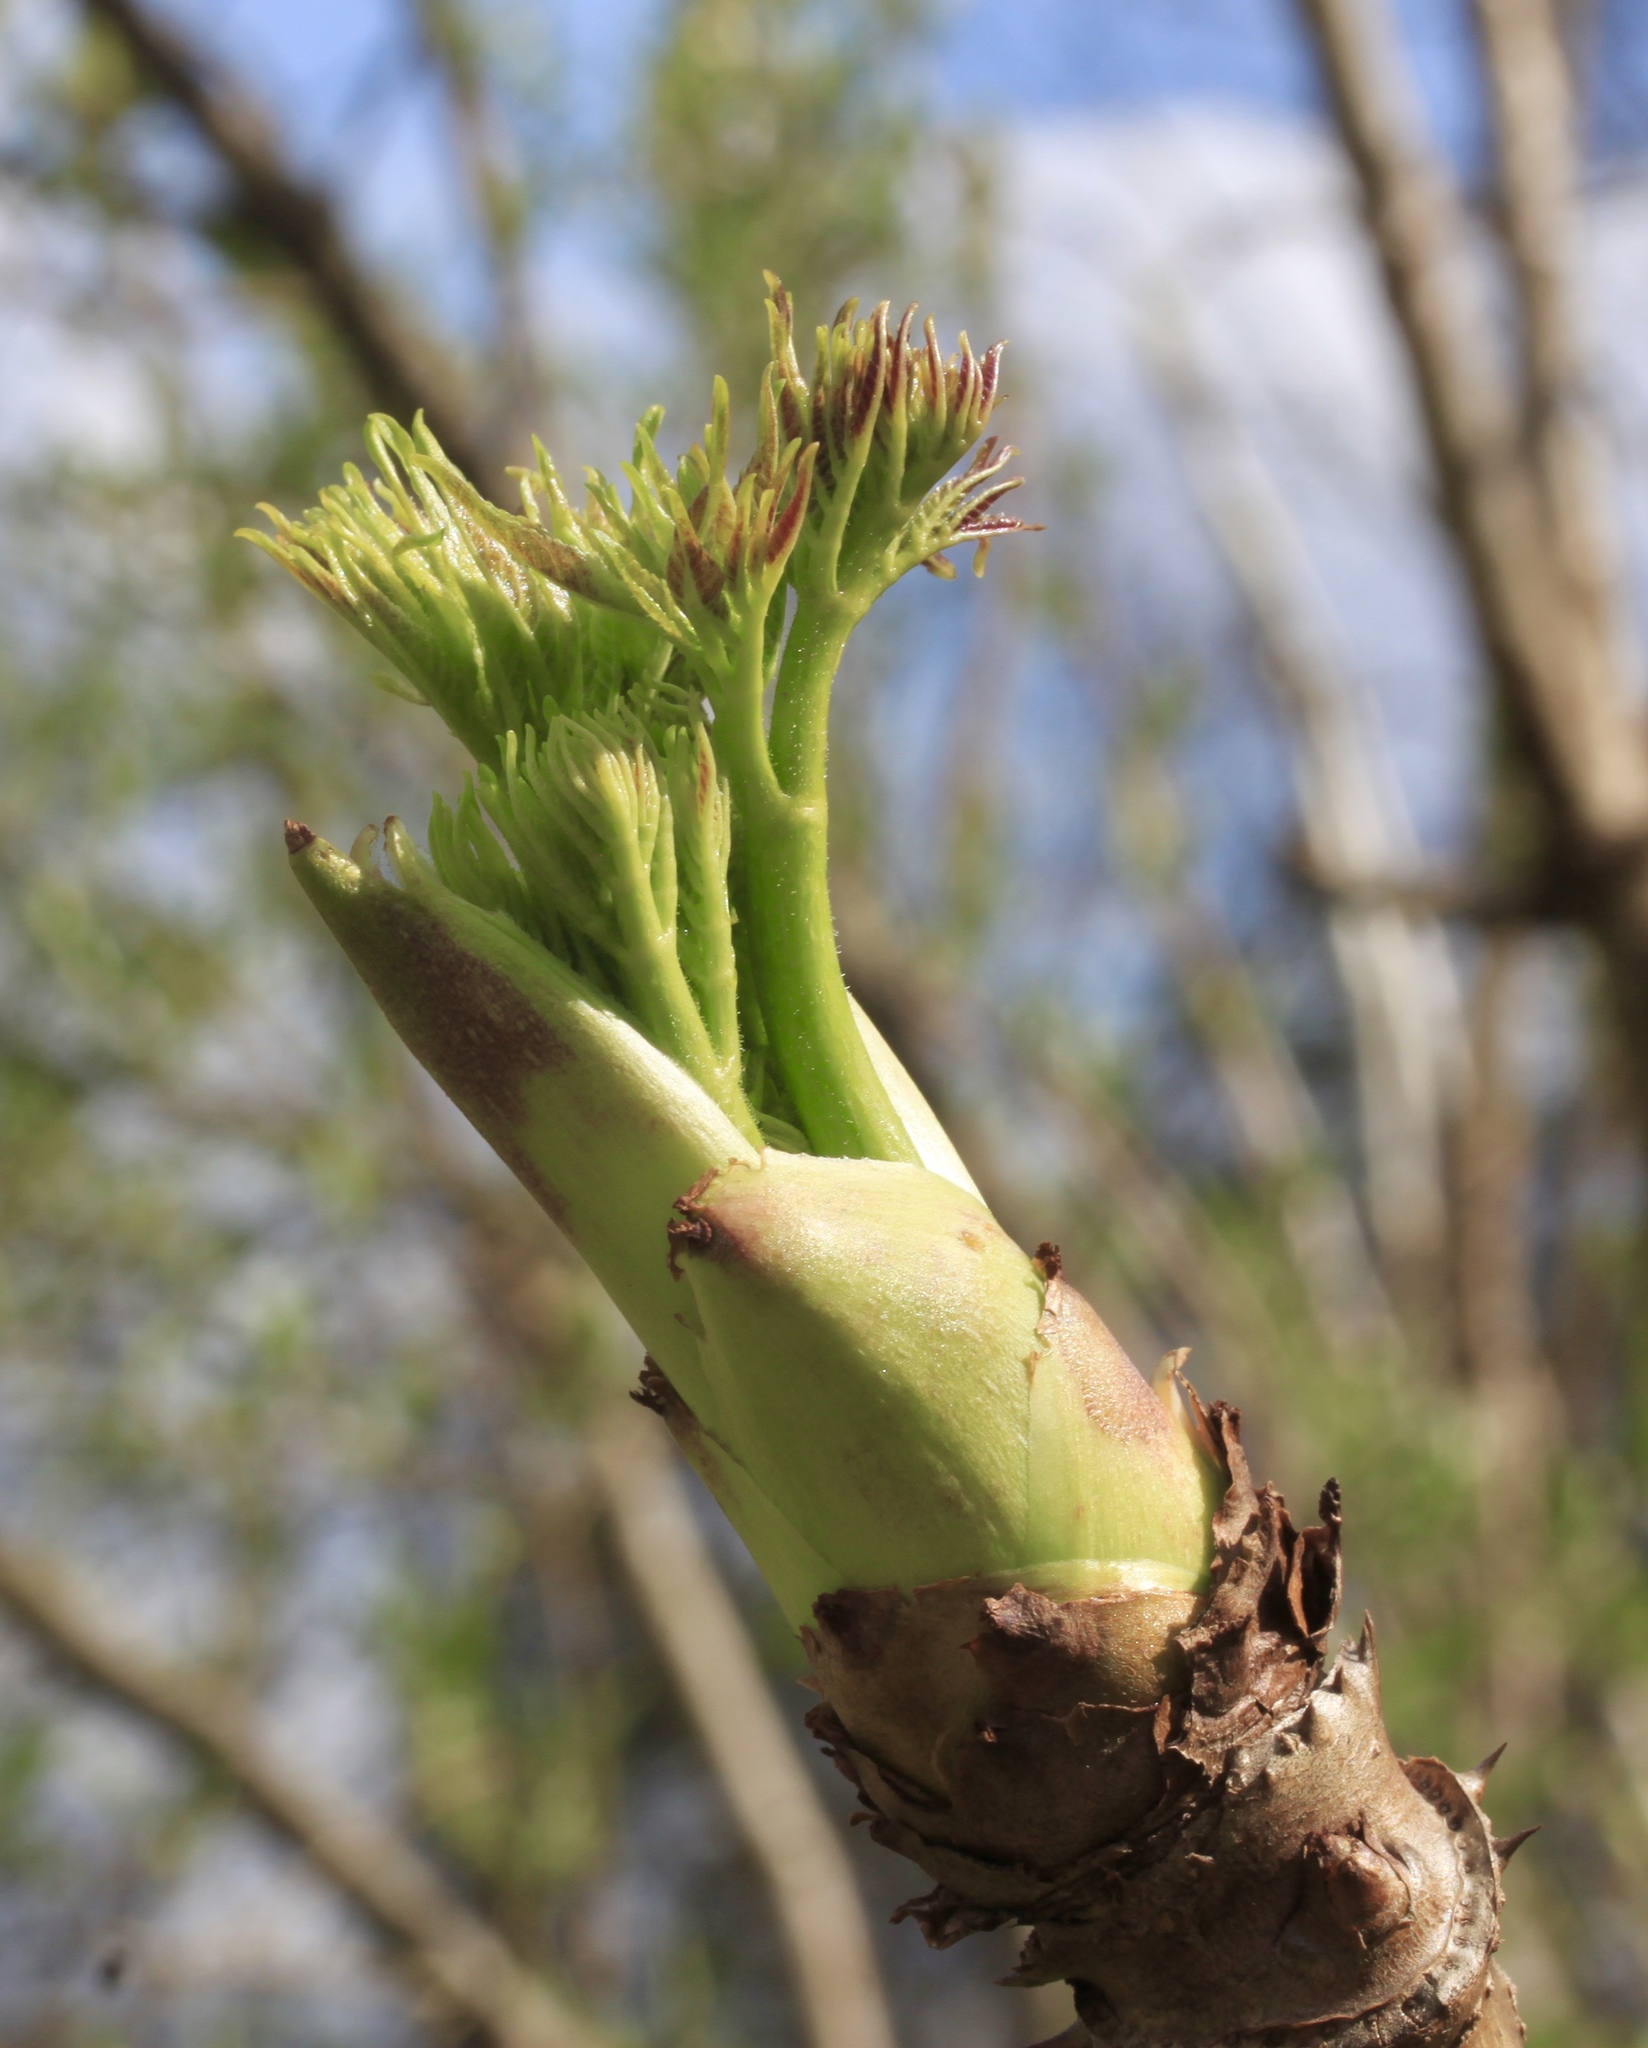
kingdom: Plantae
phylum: Tracheophyta
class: Magnoliopsida
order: Apiales
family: Araliaceae
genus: Aralia
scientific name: Aralia spinosa
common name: Hercules'-club
